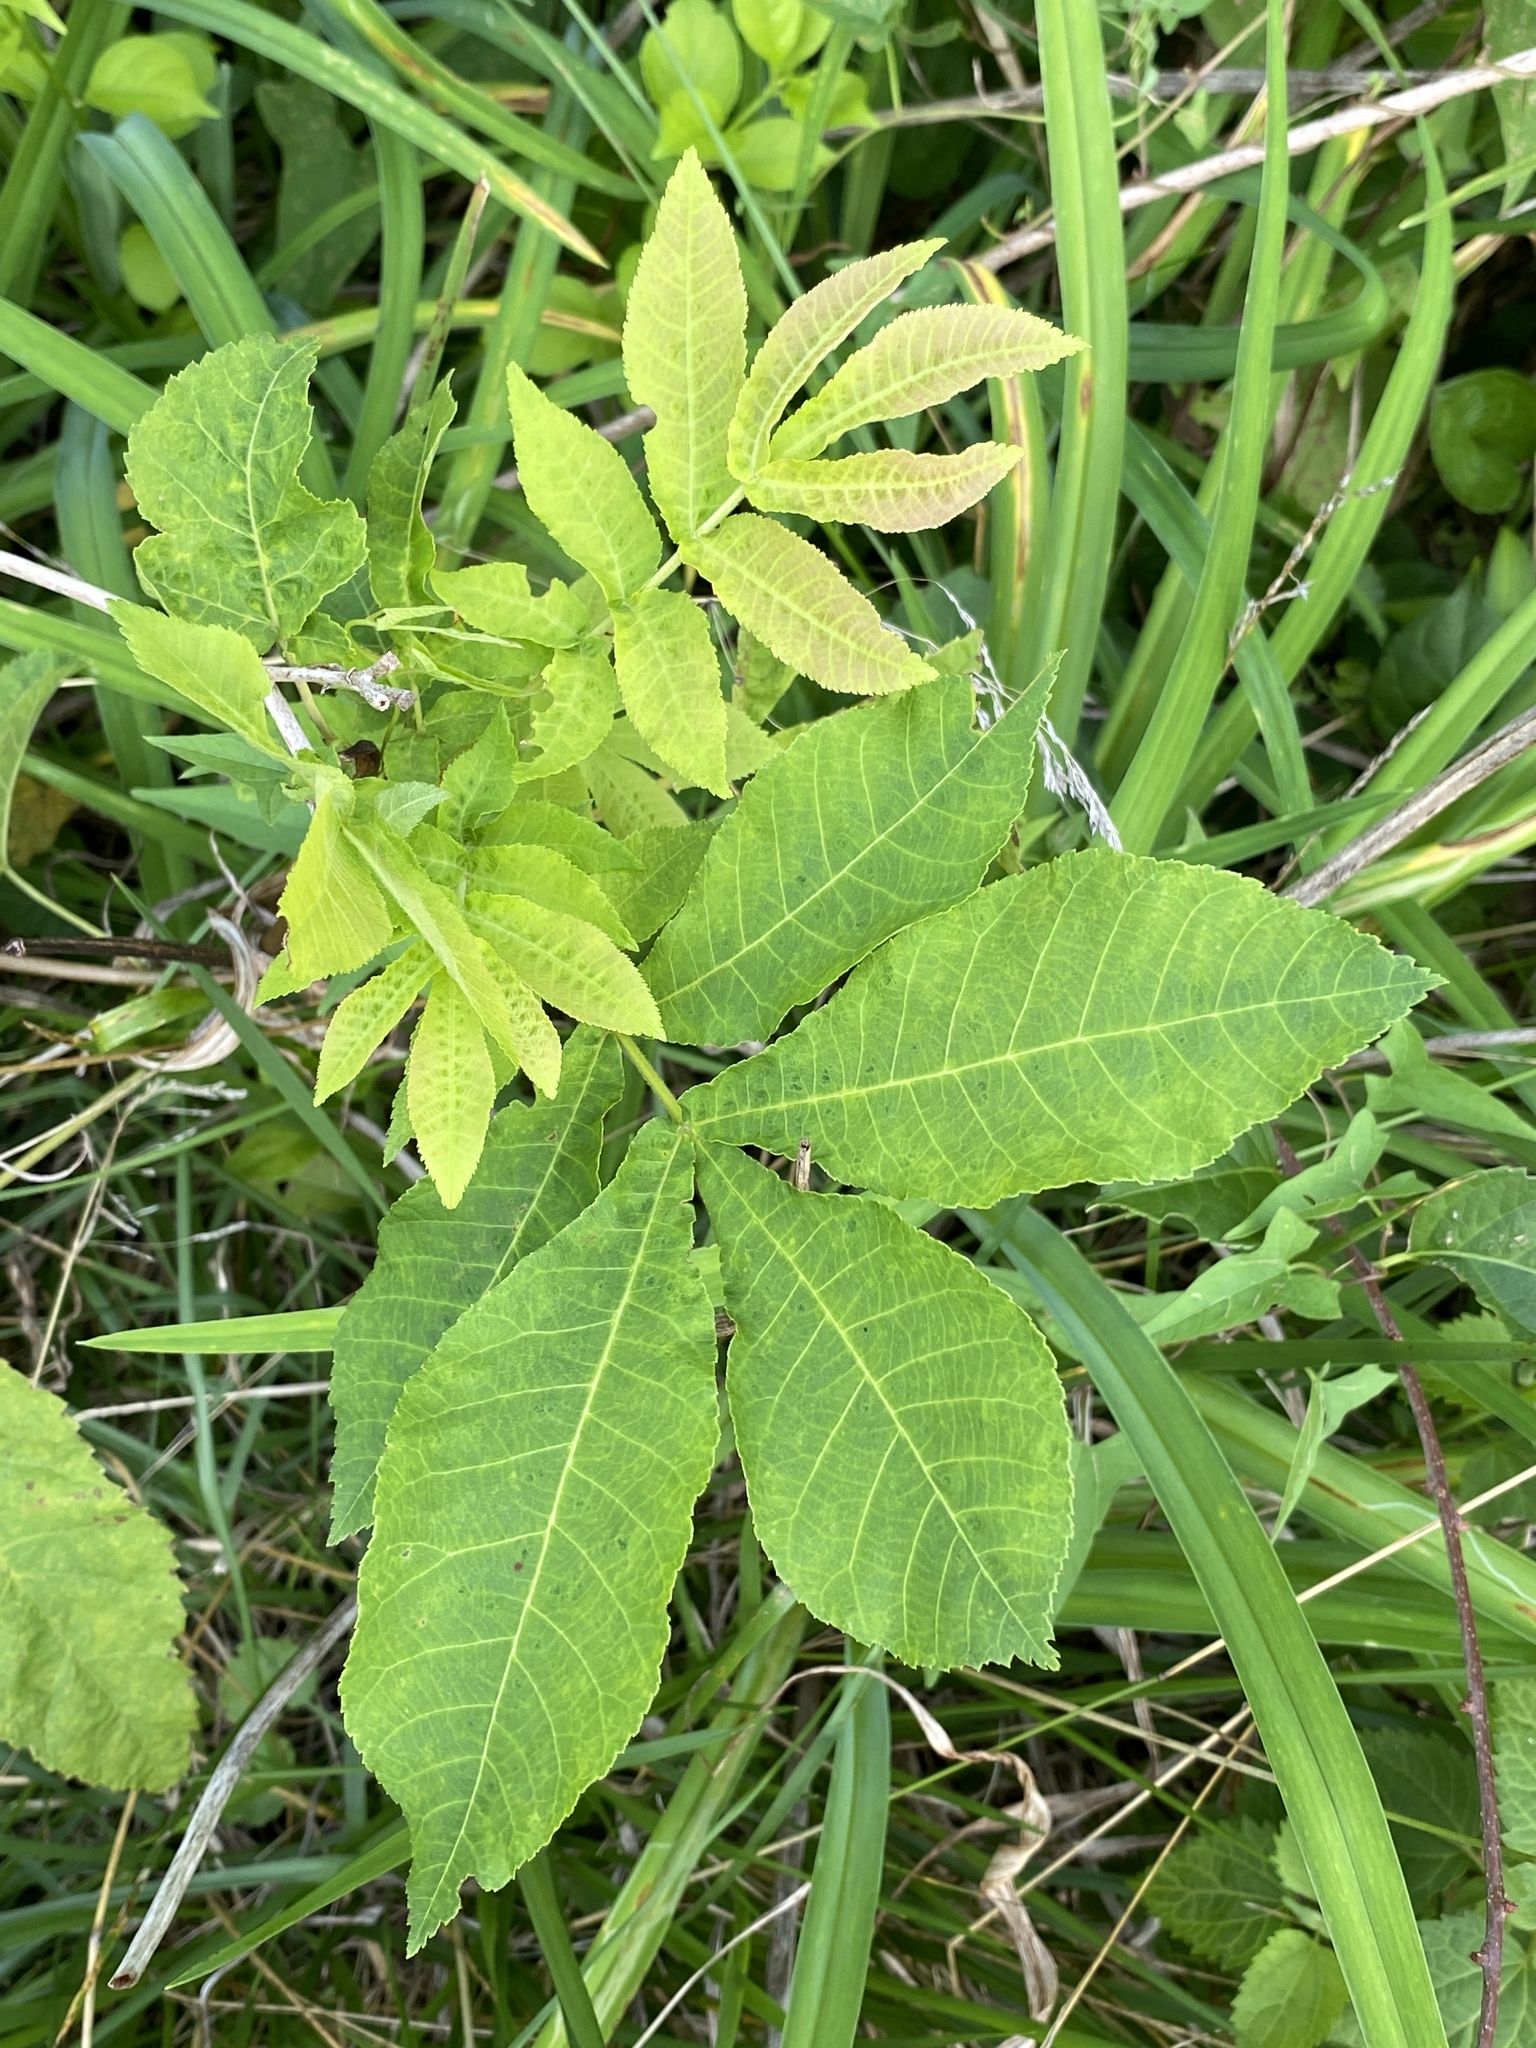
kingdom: Plantae
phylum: Tracheophyta
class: Magnoliopsida
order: Fagales
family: Juglandaceae
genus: Carya
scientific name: Carya cordiformis
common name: Bitternut hickory
